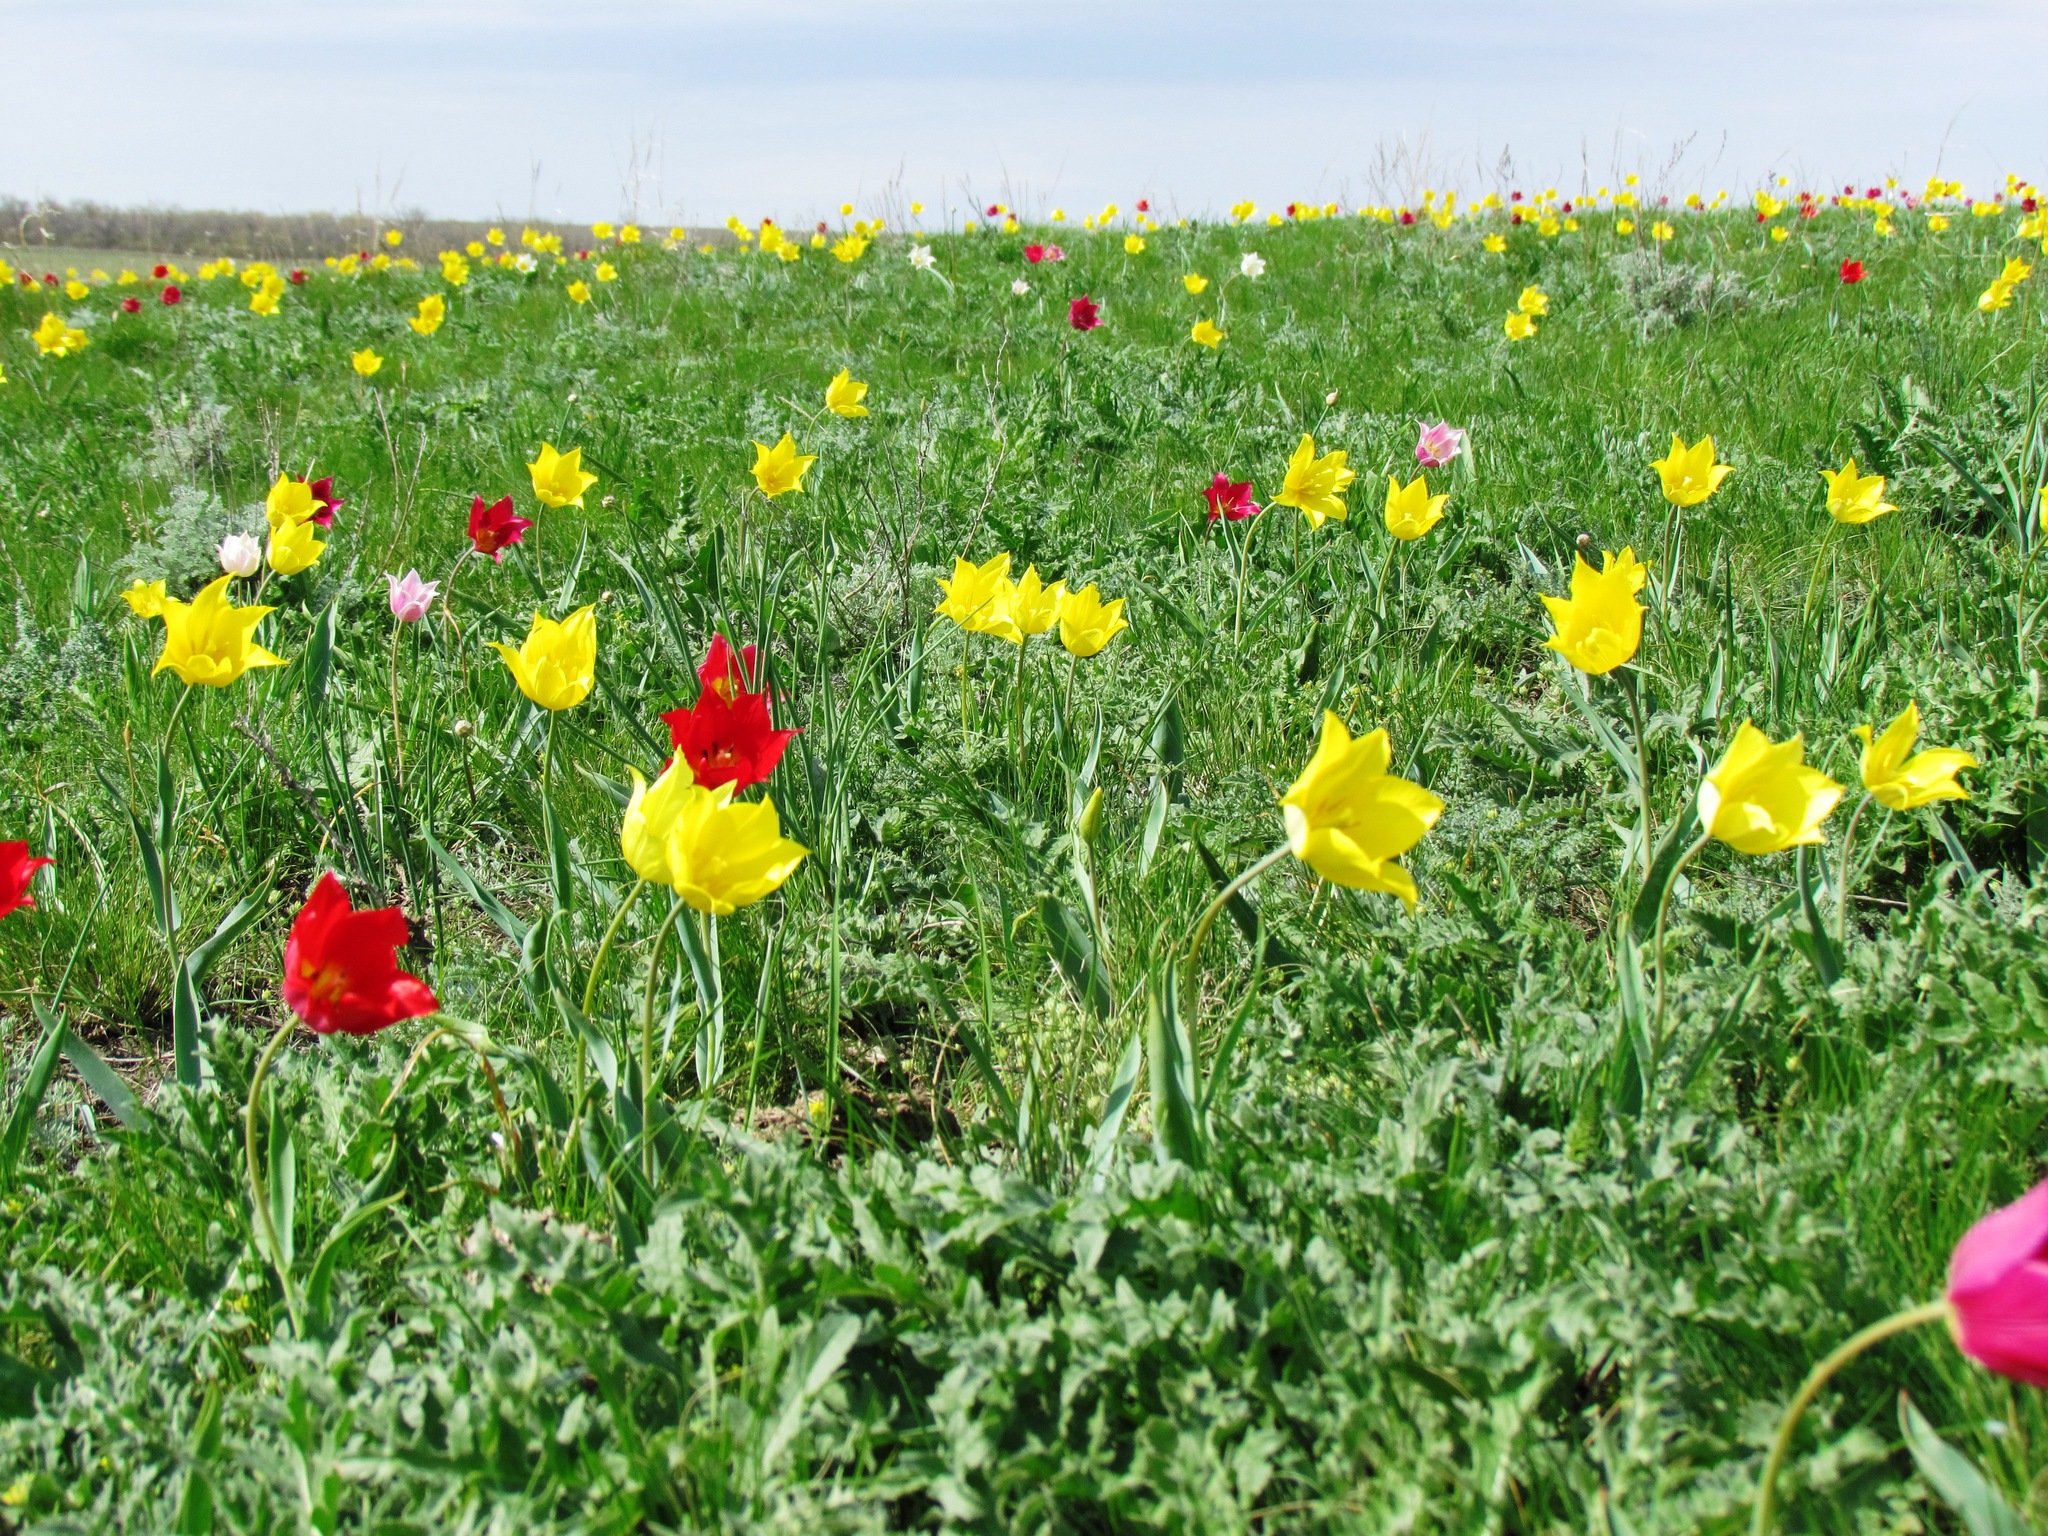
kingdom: Plantae
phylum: Tracheophyta
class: Liliopsida
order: Liliales
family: Liliaceae
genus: Tulipa
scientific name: Tulipa suaveolens
